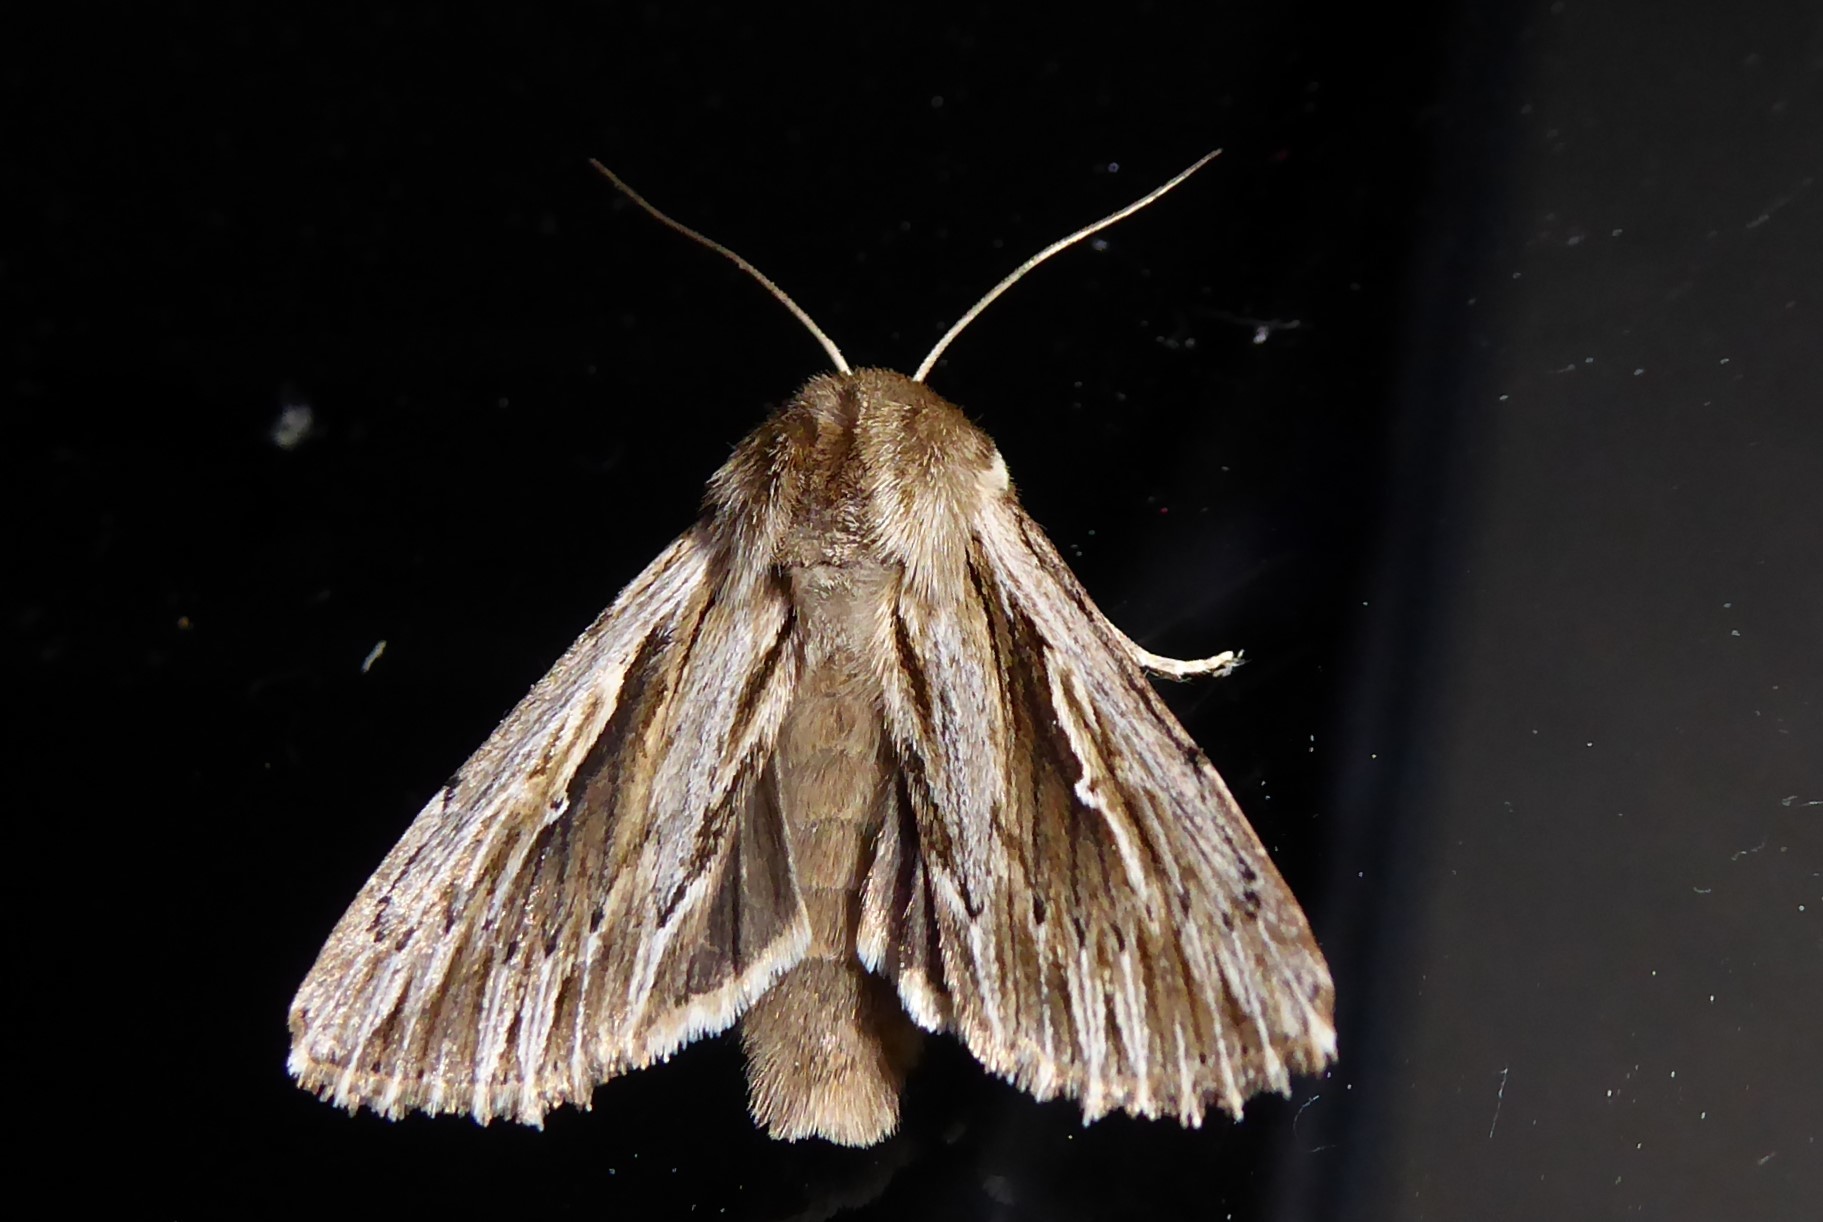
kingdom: Animalia
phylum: Arthropoda
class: Insecta
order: Lepidoptera
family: Noctuidae
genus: Persectania
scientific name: Persectania aversa
